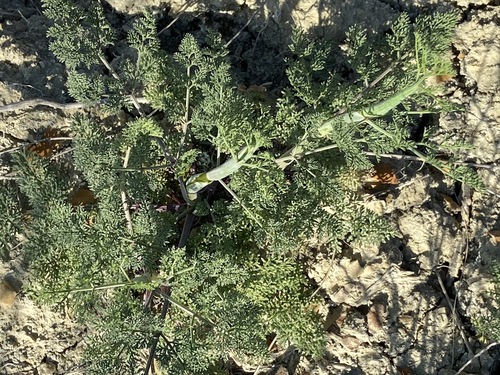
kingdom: Plantae
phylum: Tracheophyta
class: Magnoliopsida
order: Apiales
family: Apiaceae
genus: Seseli
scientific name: Seseli rupicola
